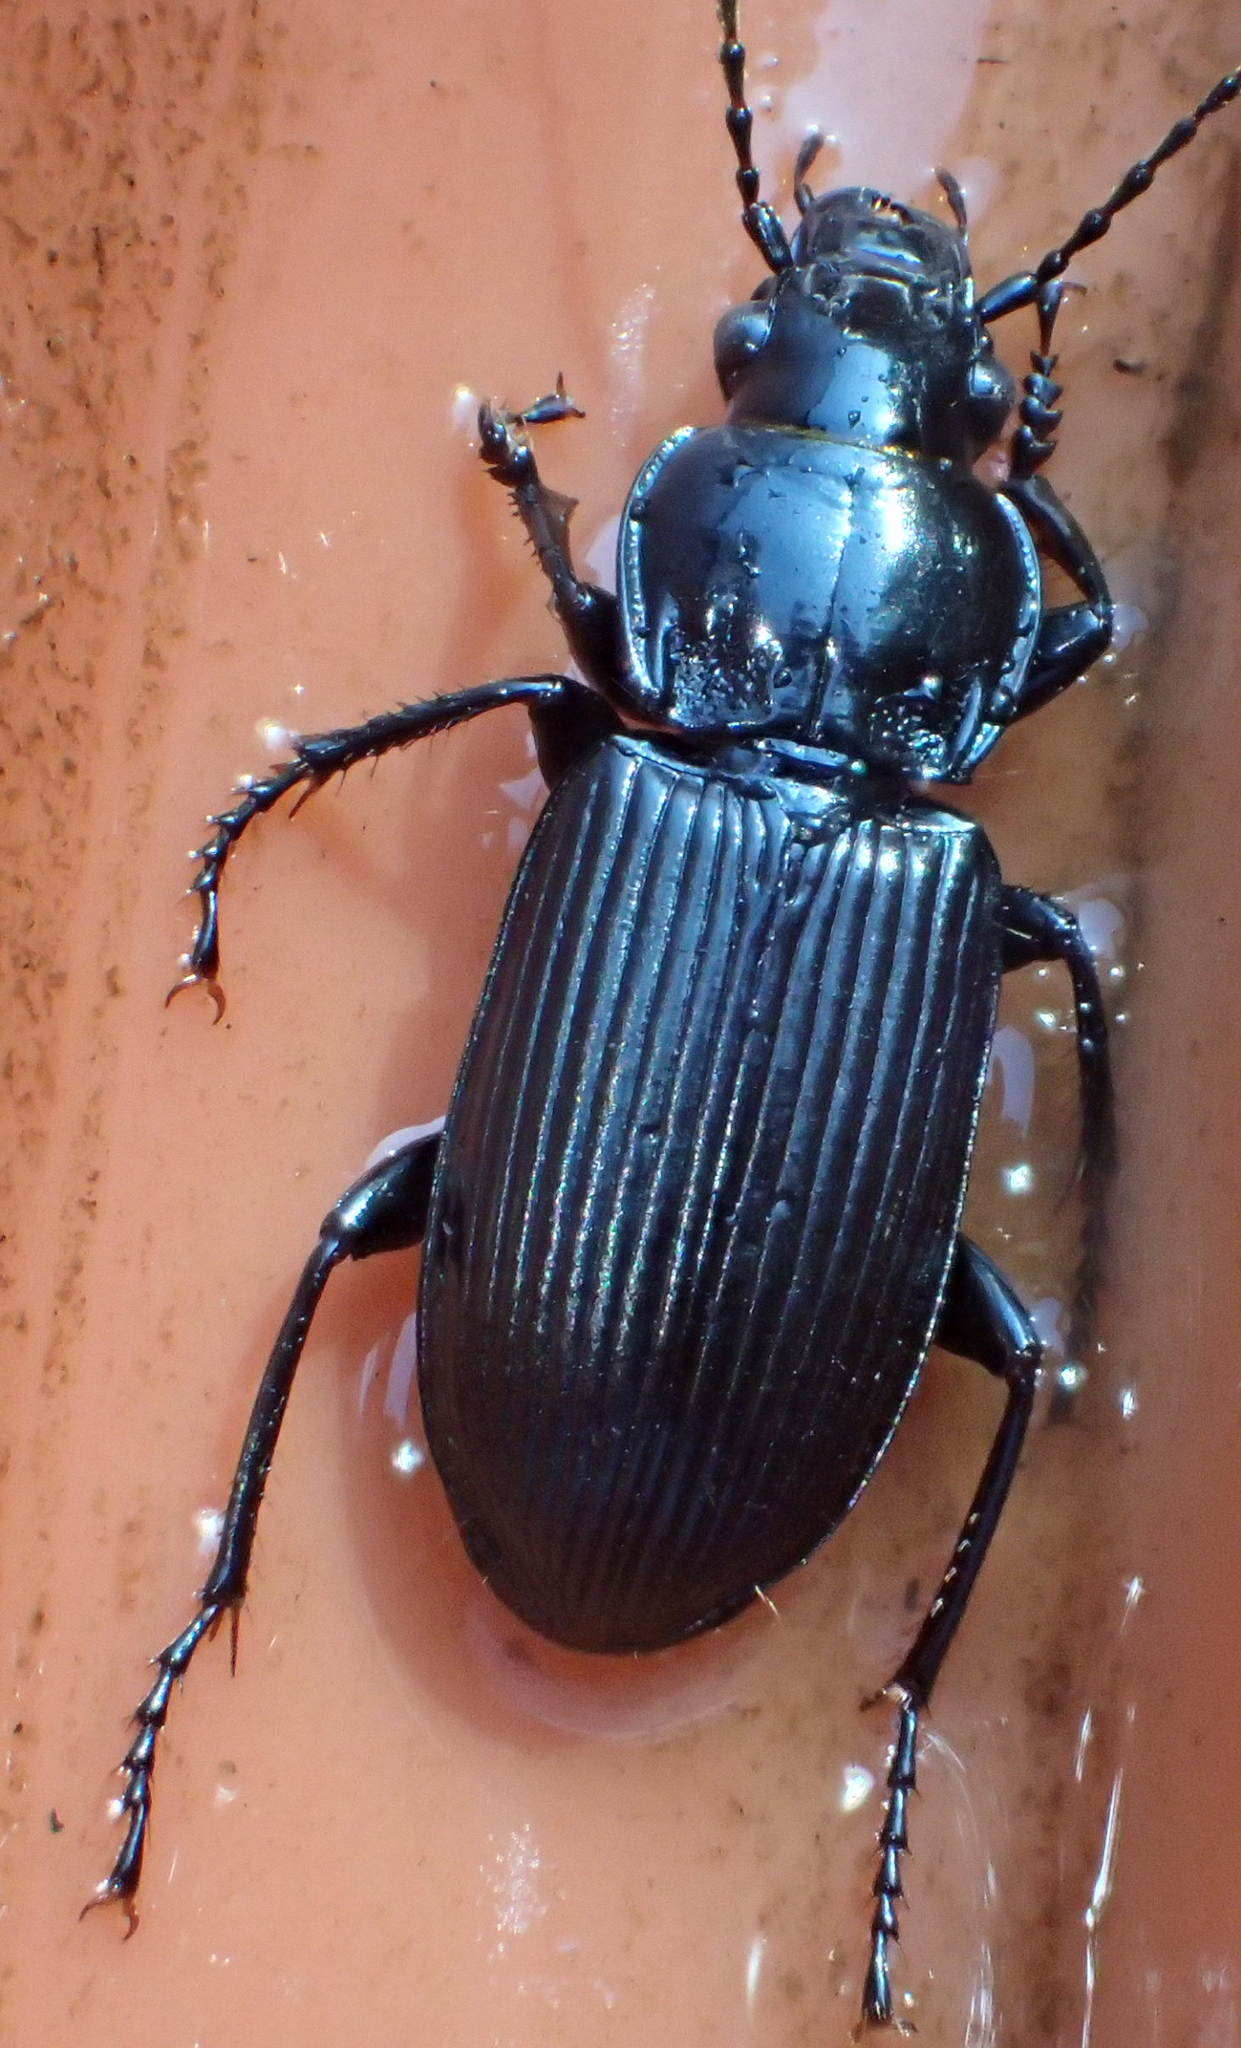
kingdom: Animalia
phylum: Arthropoda
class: Insecta
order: Coleoptera
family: Carabidae
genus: Pterostichus
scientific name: Pterostichus melanarius
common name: European dark harp ground beetle
